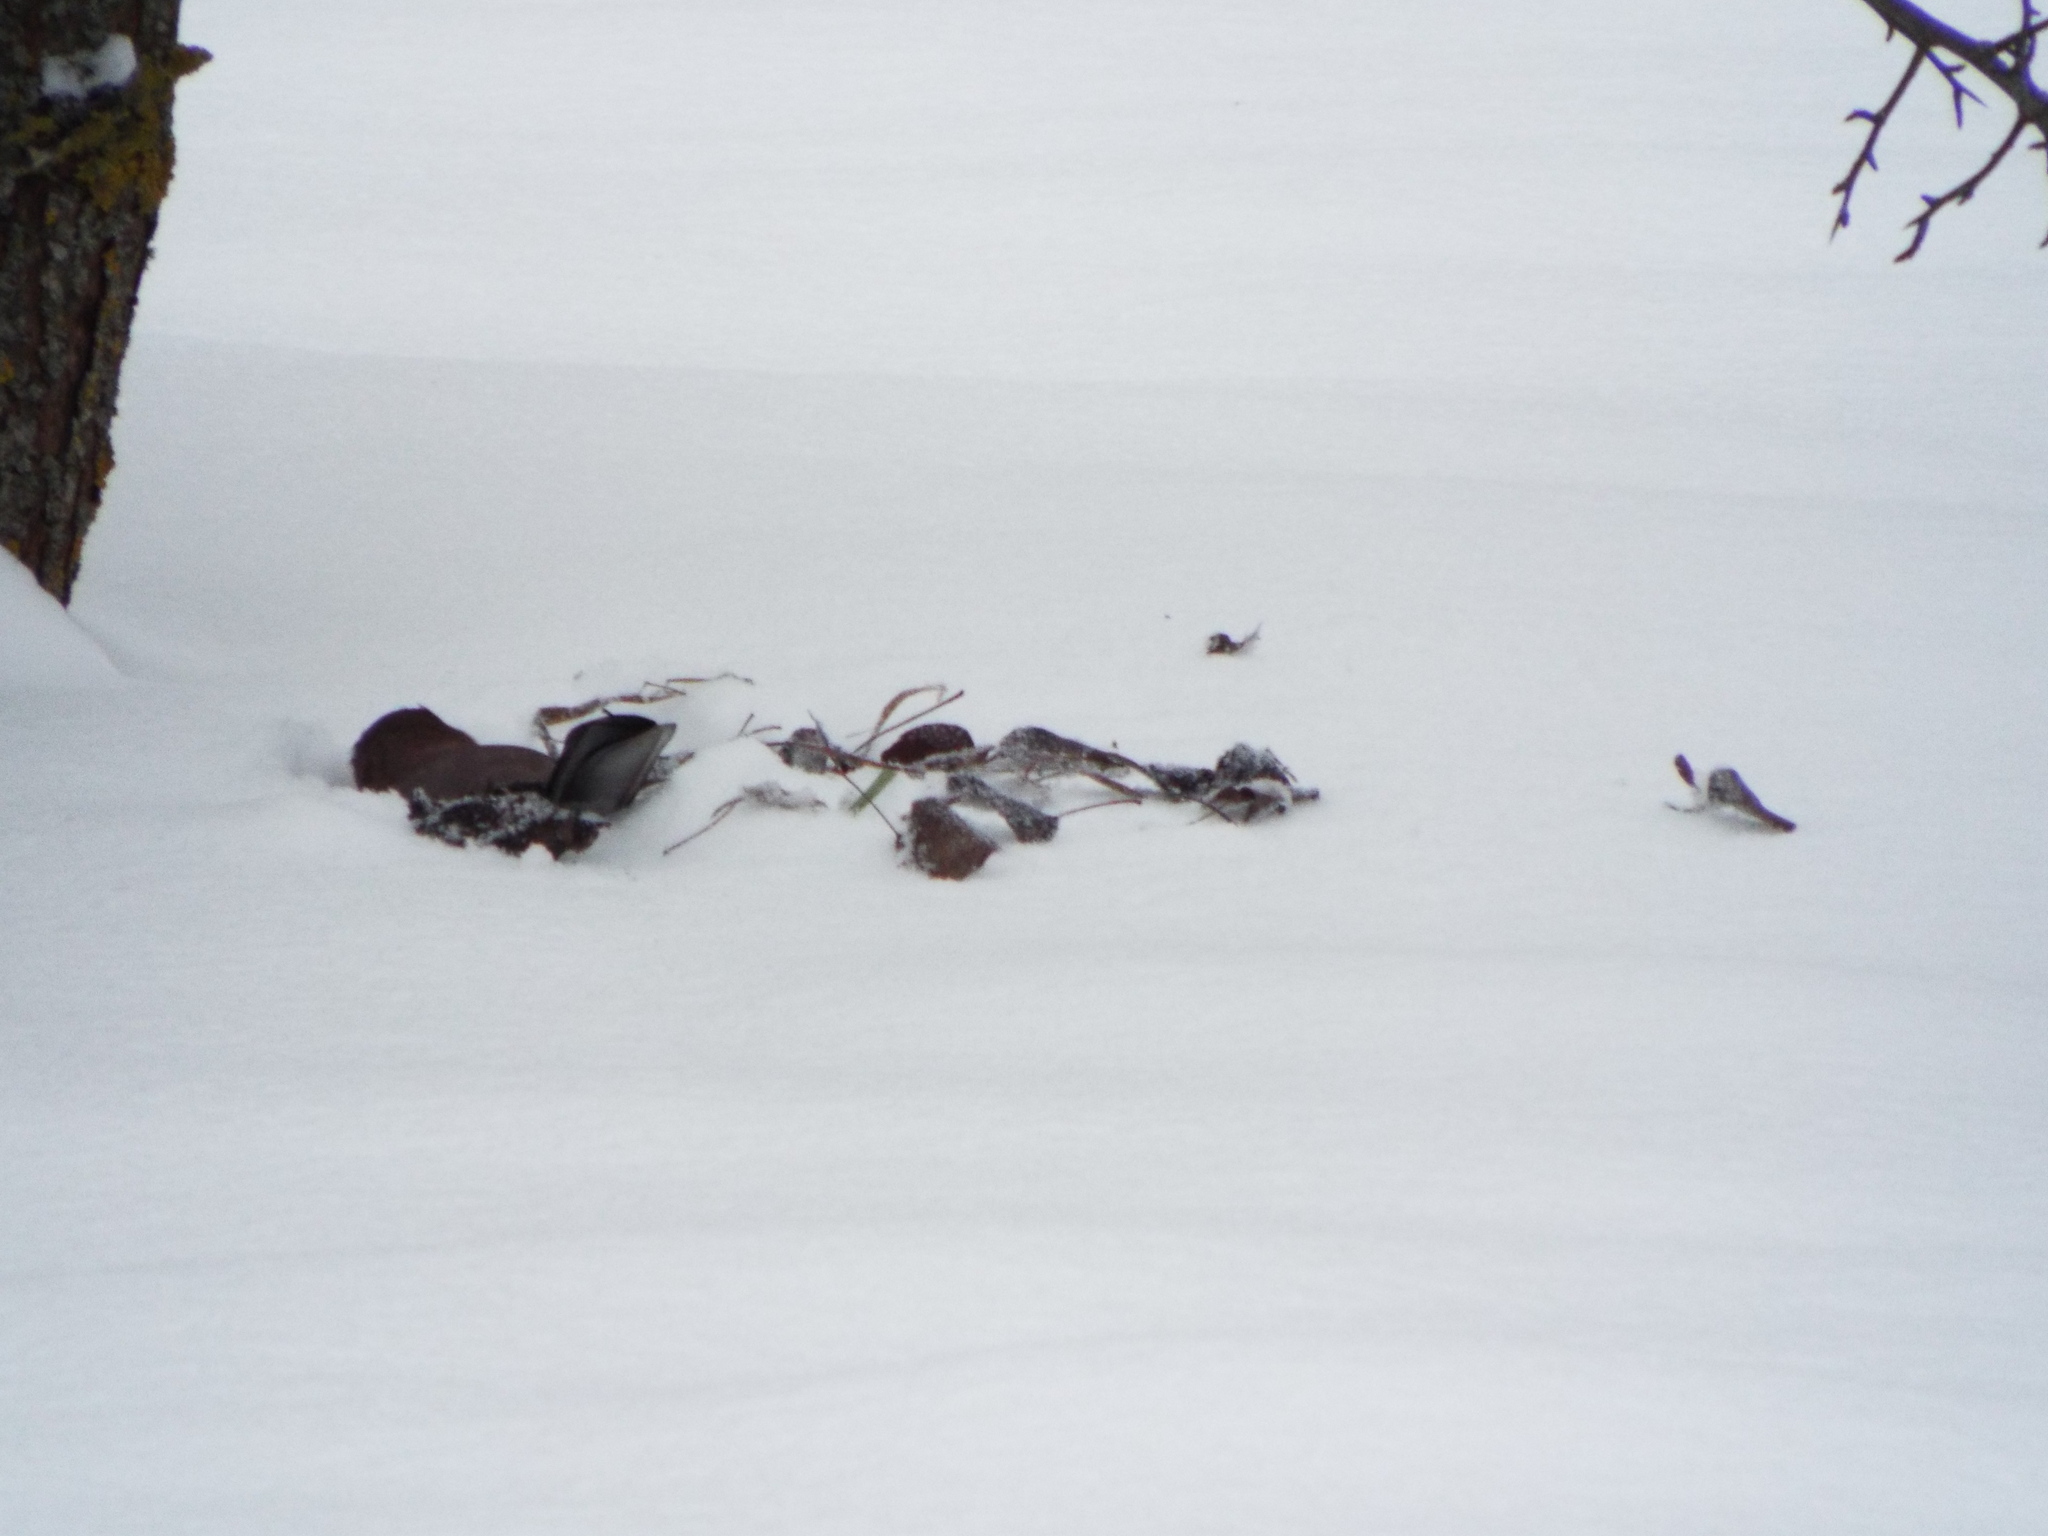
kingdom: Animalia
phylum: Chordata
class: Aves
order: Passeriformes
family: Corvidae
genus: Garrulus
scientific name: Garrulus glandarius
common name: Eurasian jay
